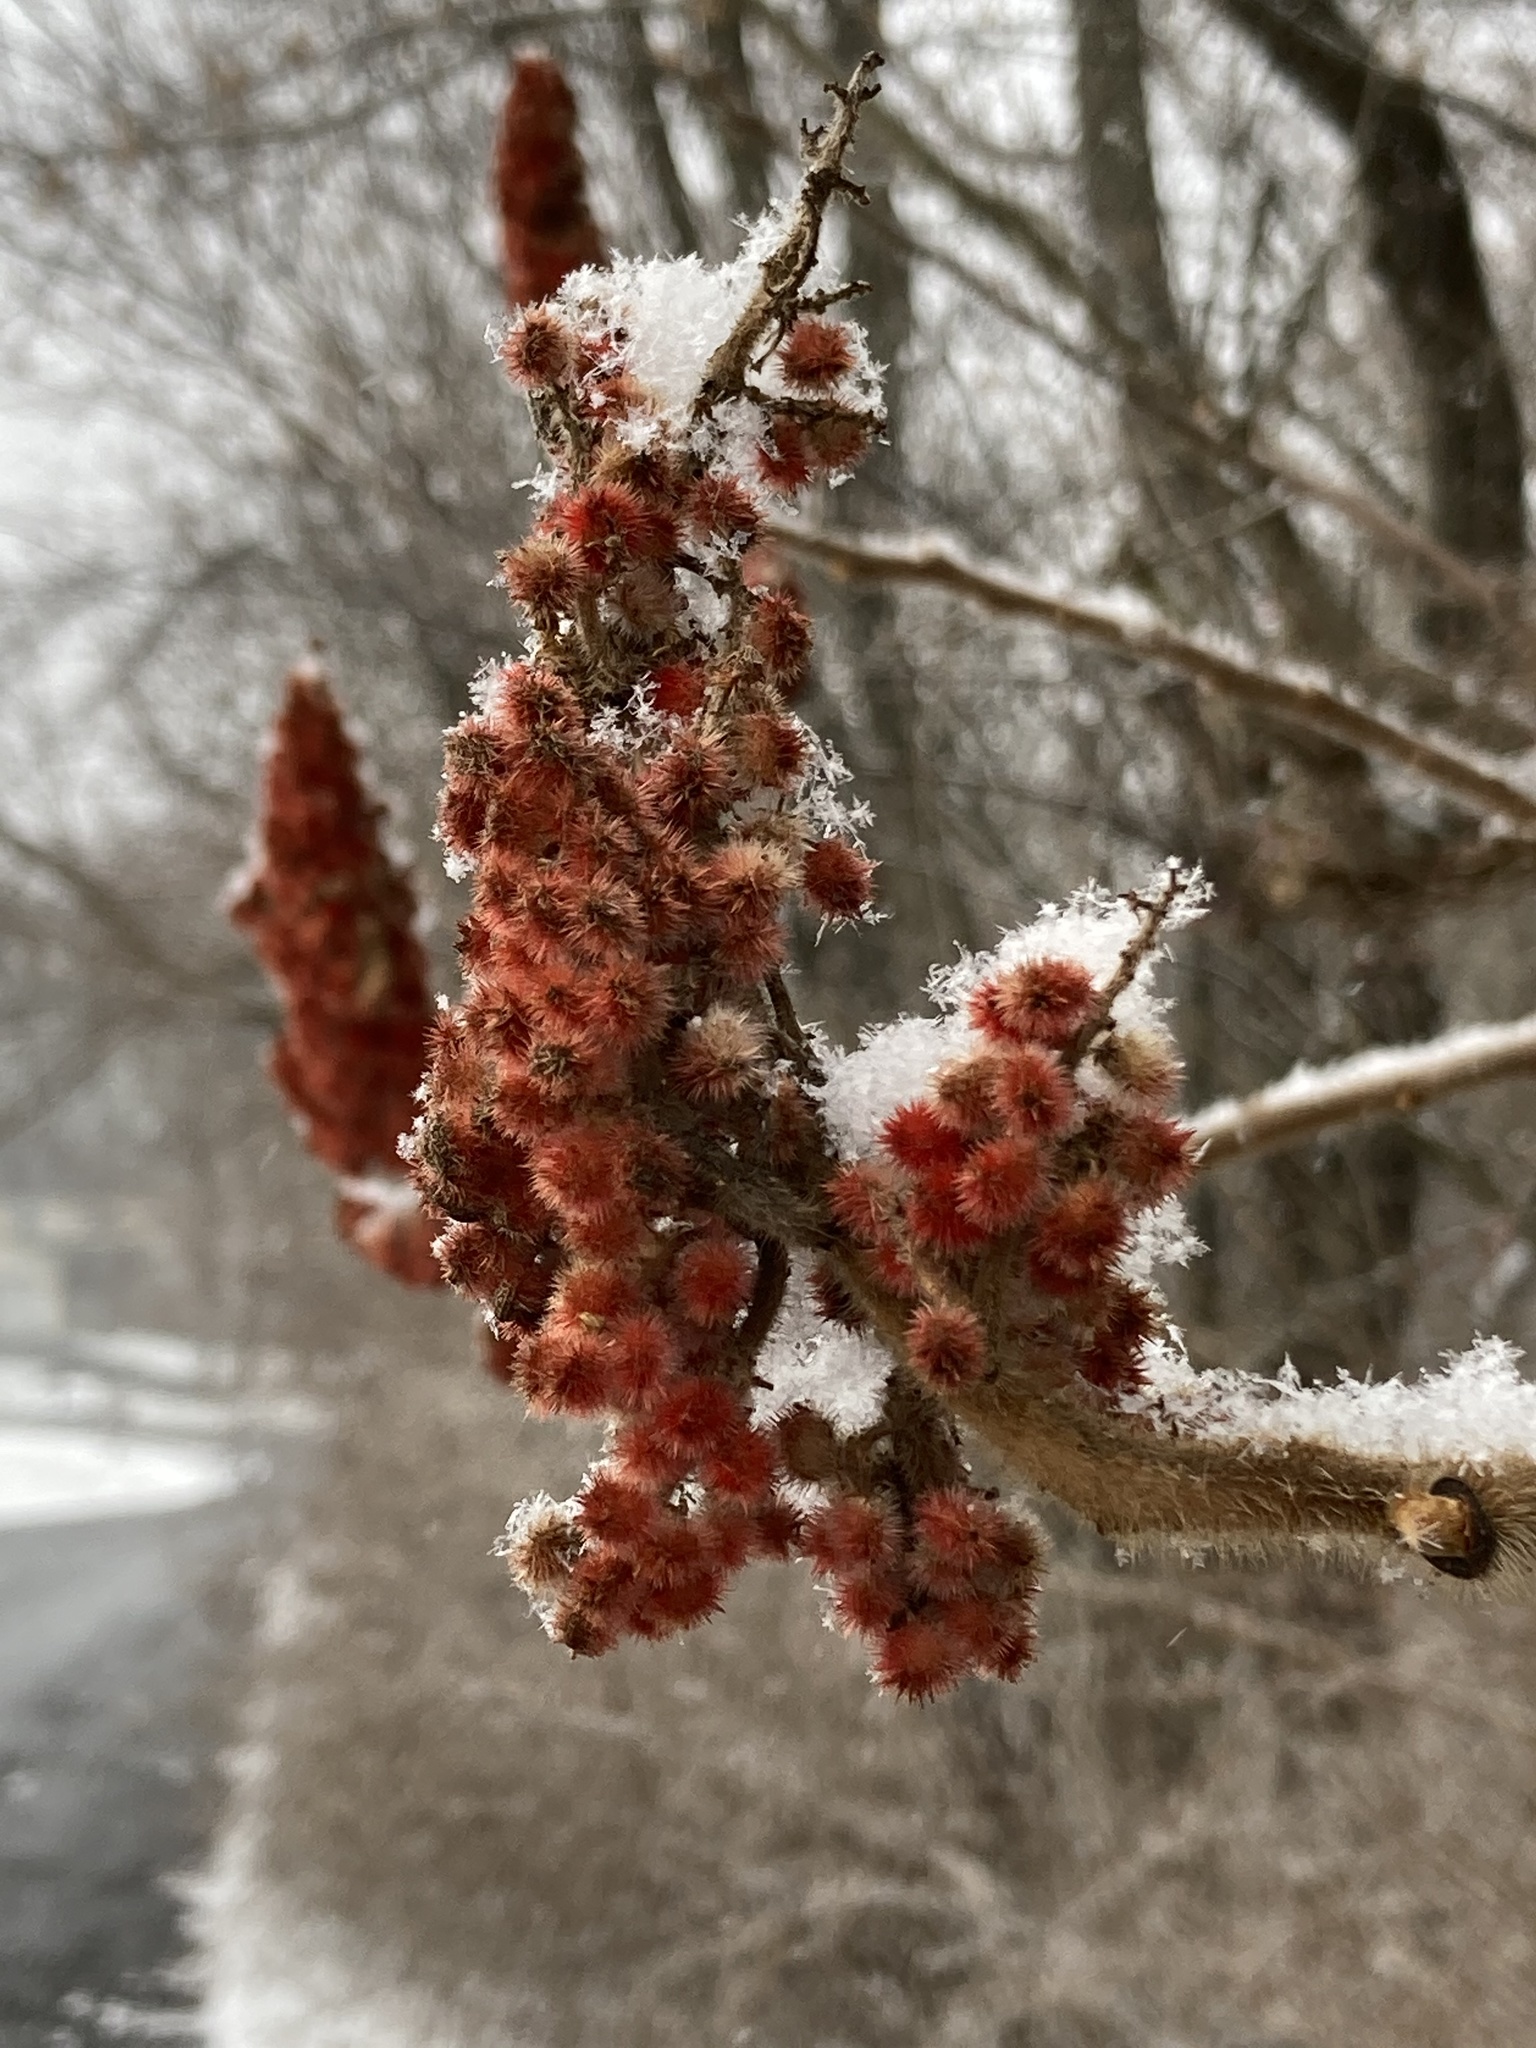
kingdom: Plantae
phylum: Tracheophyta
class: Magnoliopsida
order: Sapindales
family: Anacardiaceae
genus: Rhus
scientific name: Rhus typhina
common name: Staghorn sumac
